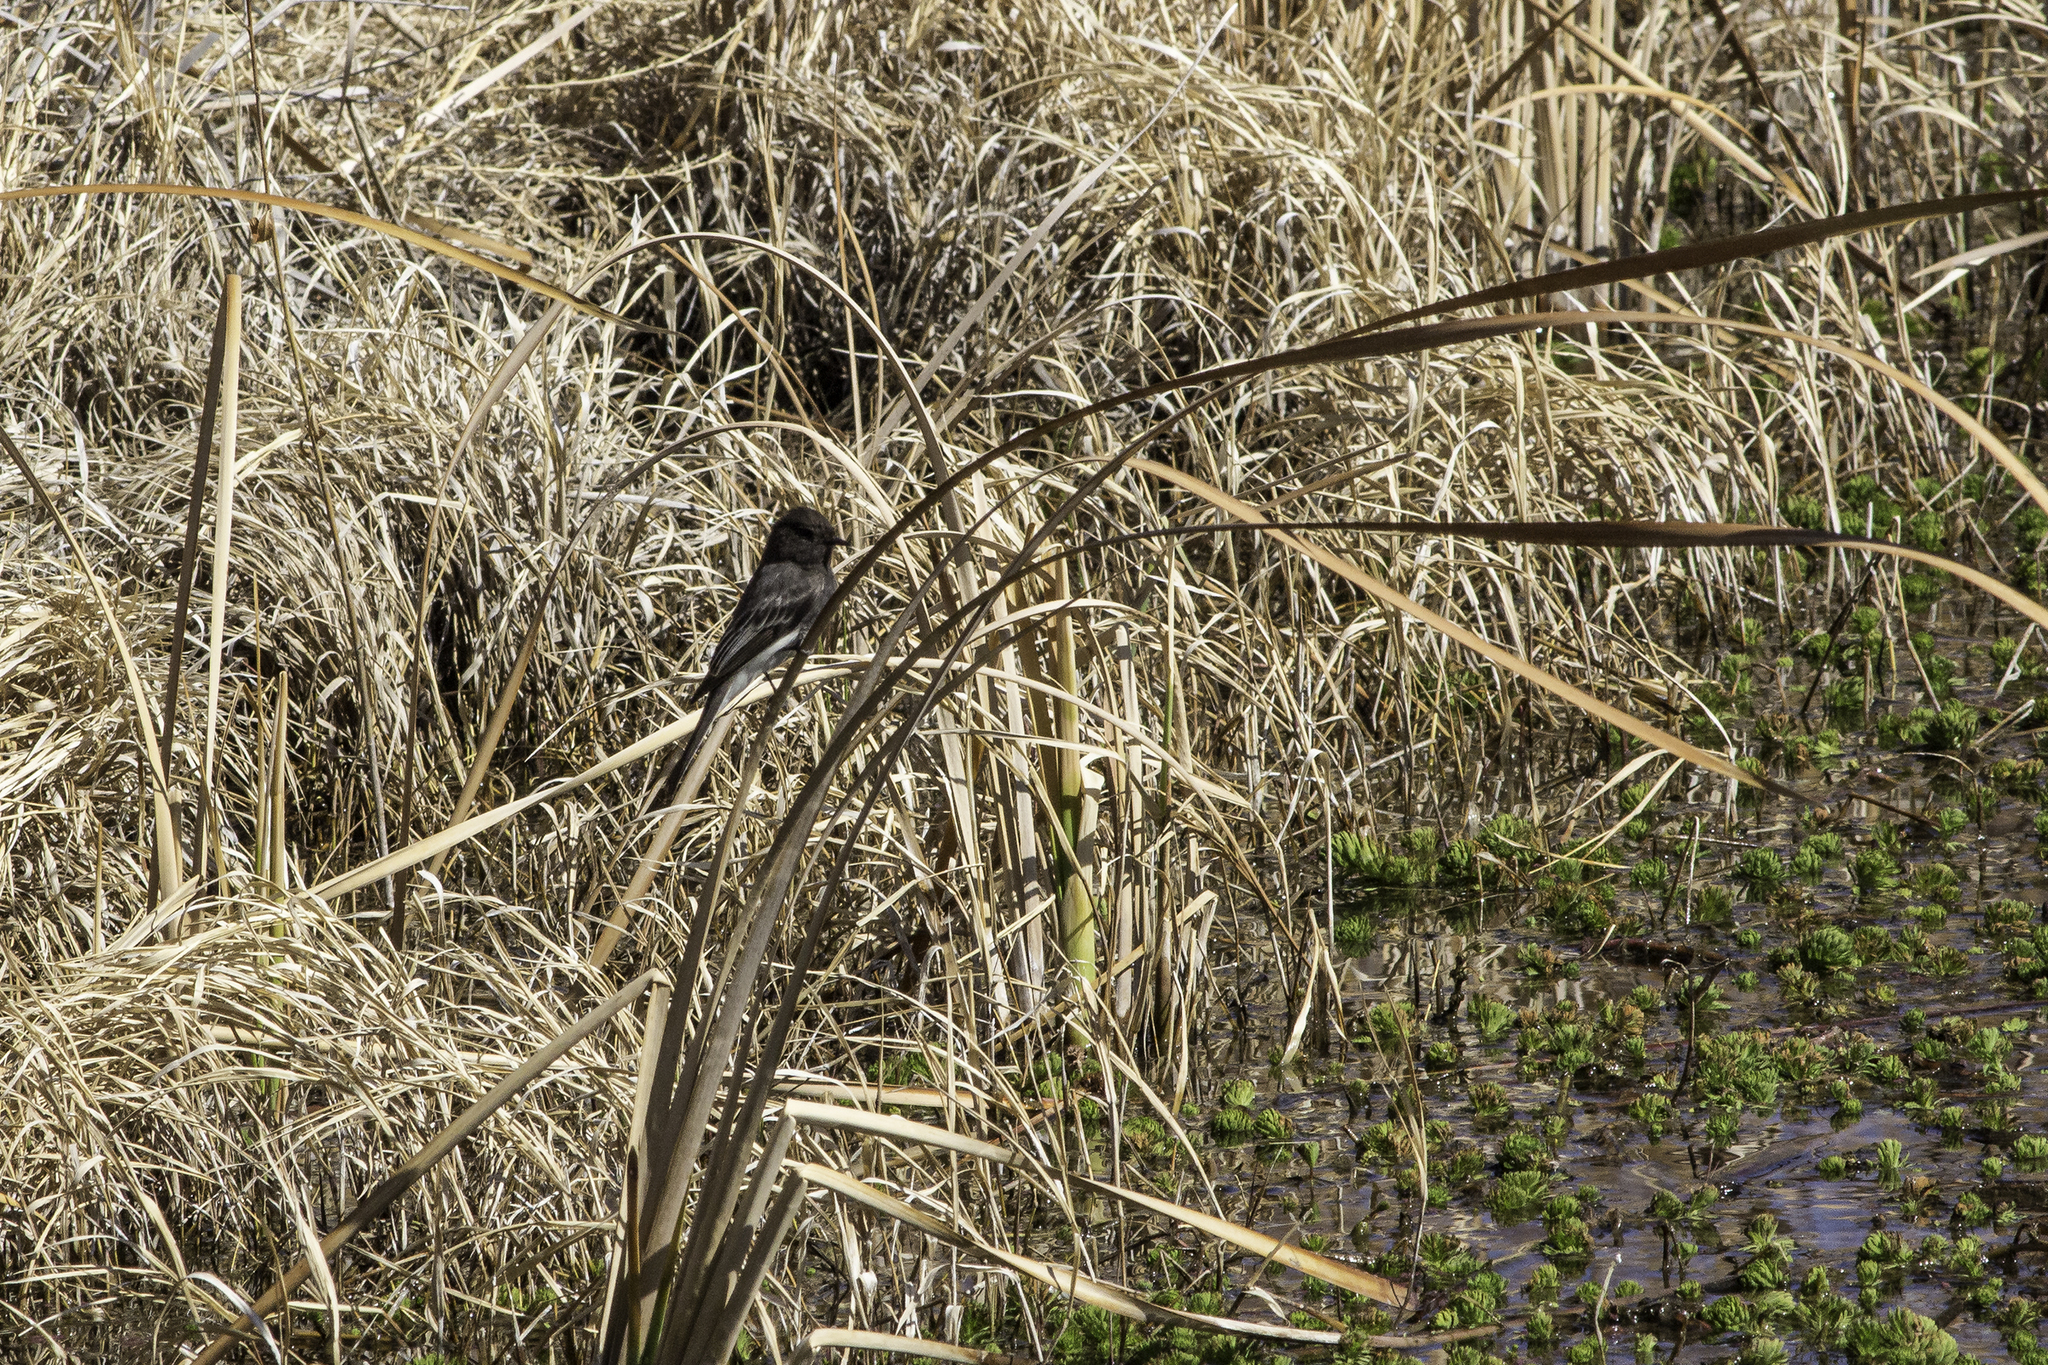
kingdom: Animalia
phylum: Chordata
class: Aves
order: Passeriformes
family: Tyrannidae
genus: Sayornis
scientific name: Sayornis nigricans
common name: Black phoebe
